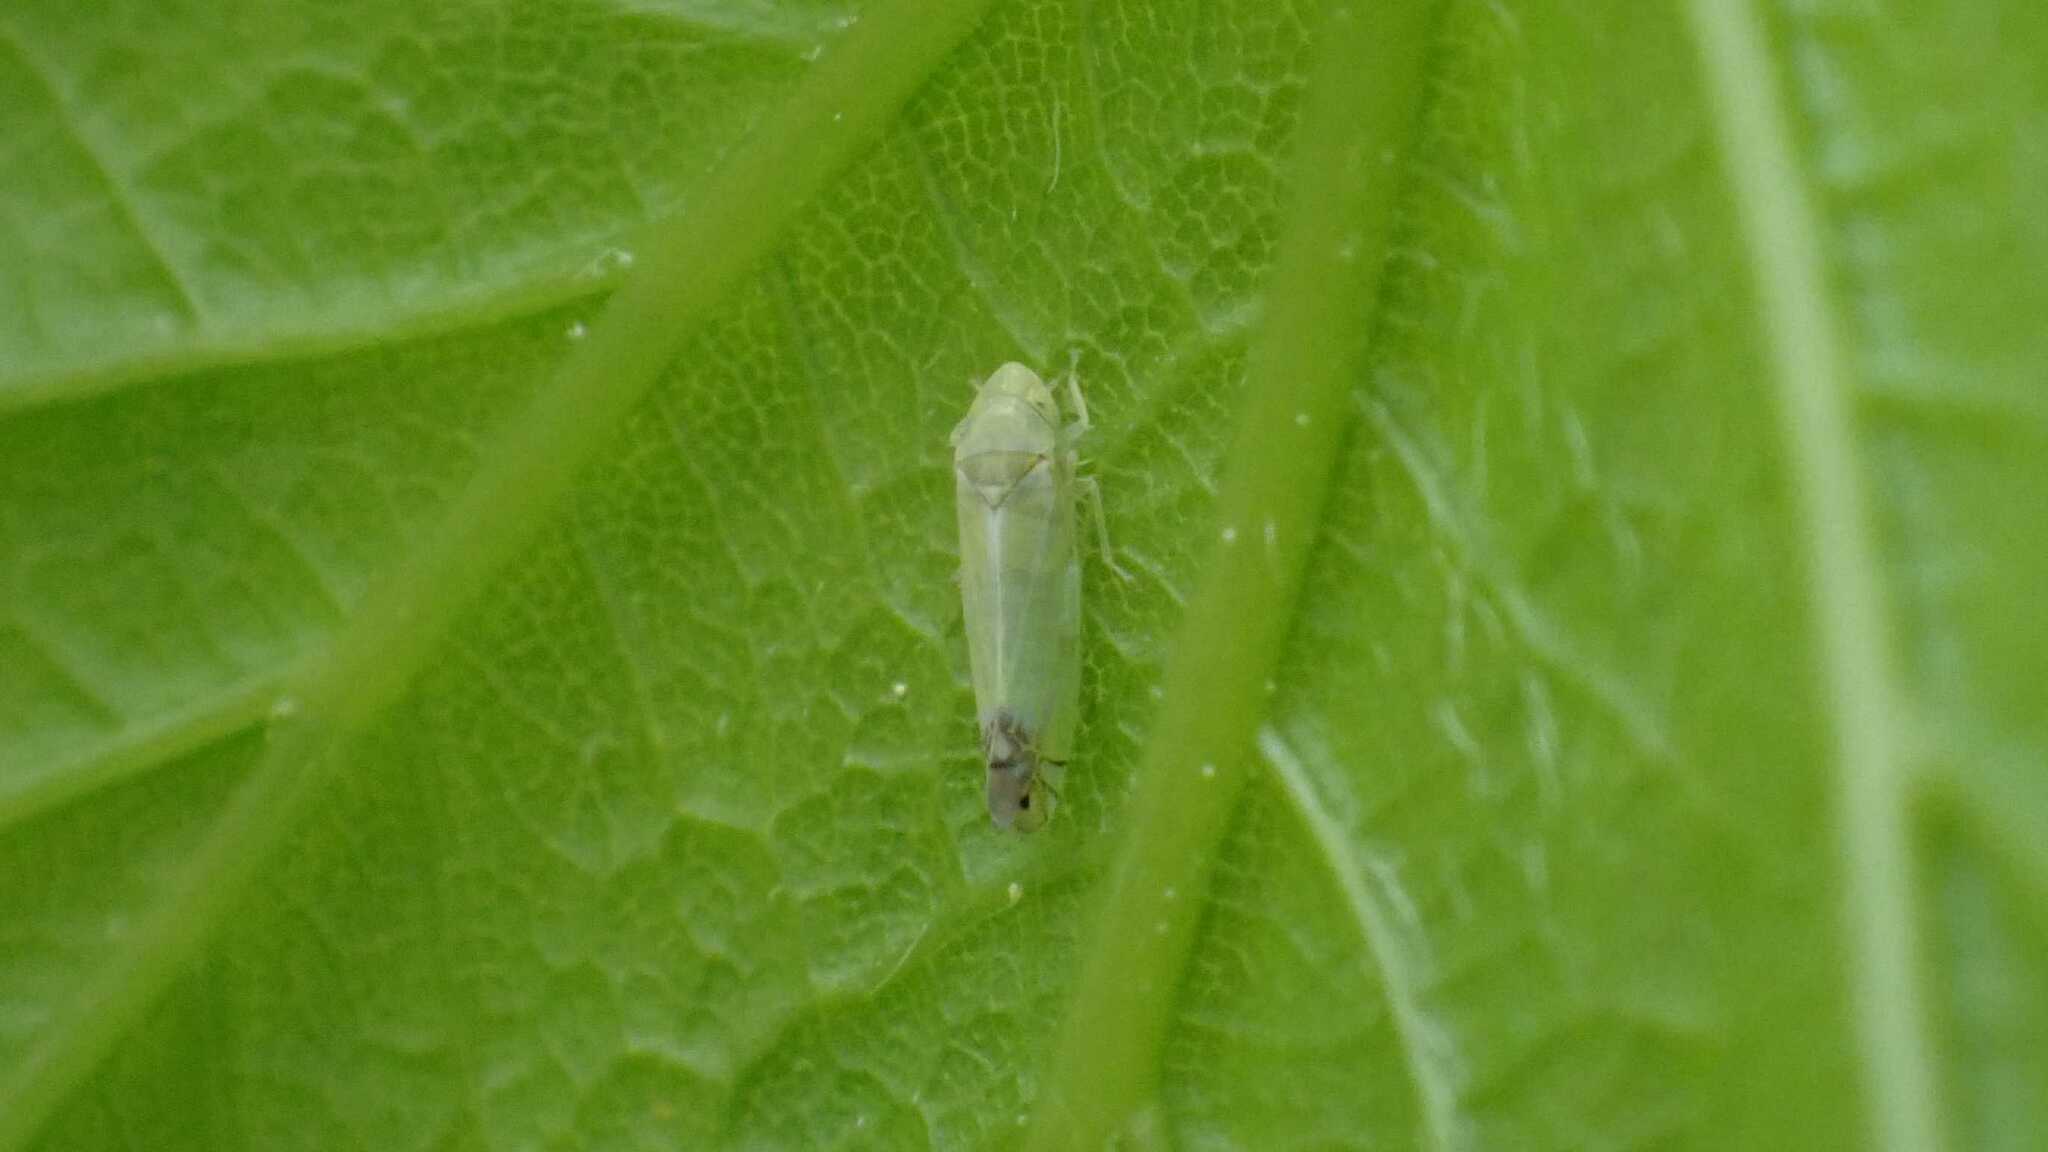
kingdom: Animalia
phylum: Arthropoda
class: Insecta
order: Hemiptera
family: Cicadellidae
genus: Zyginella
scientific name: Zyginella pulchra
